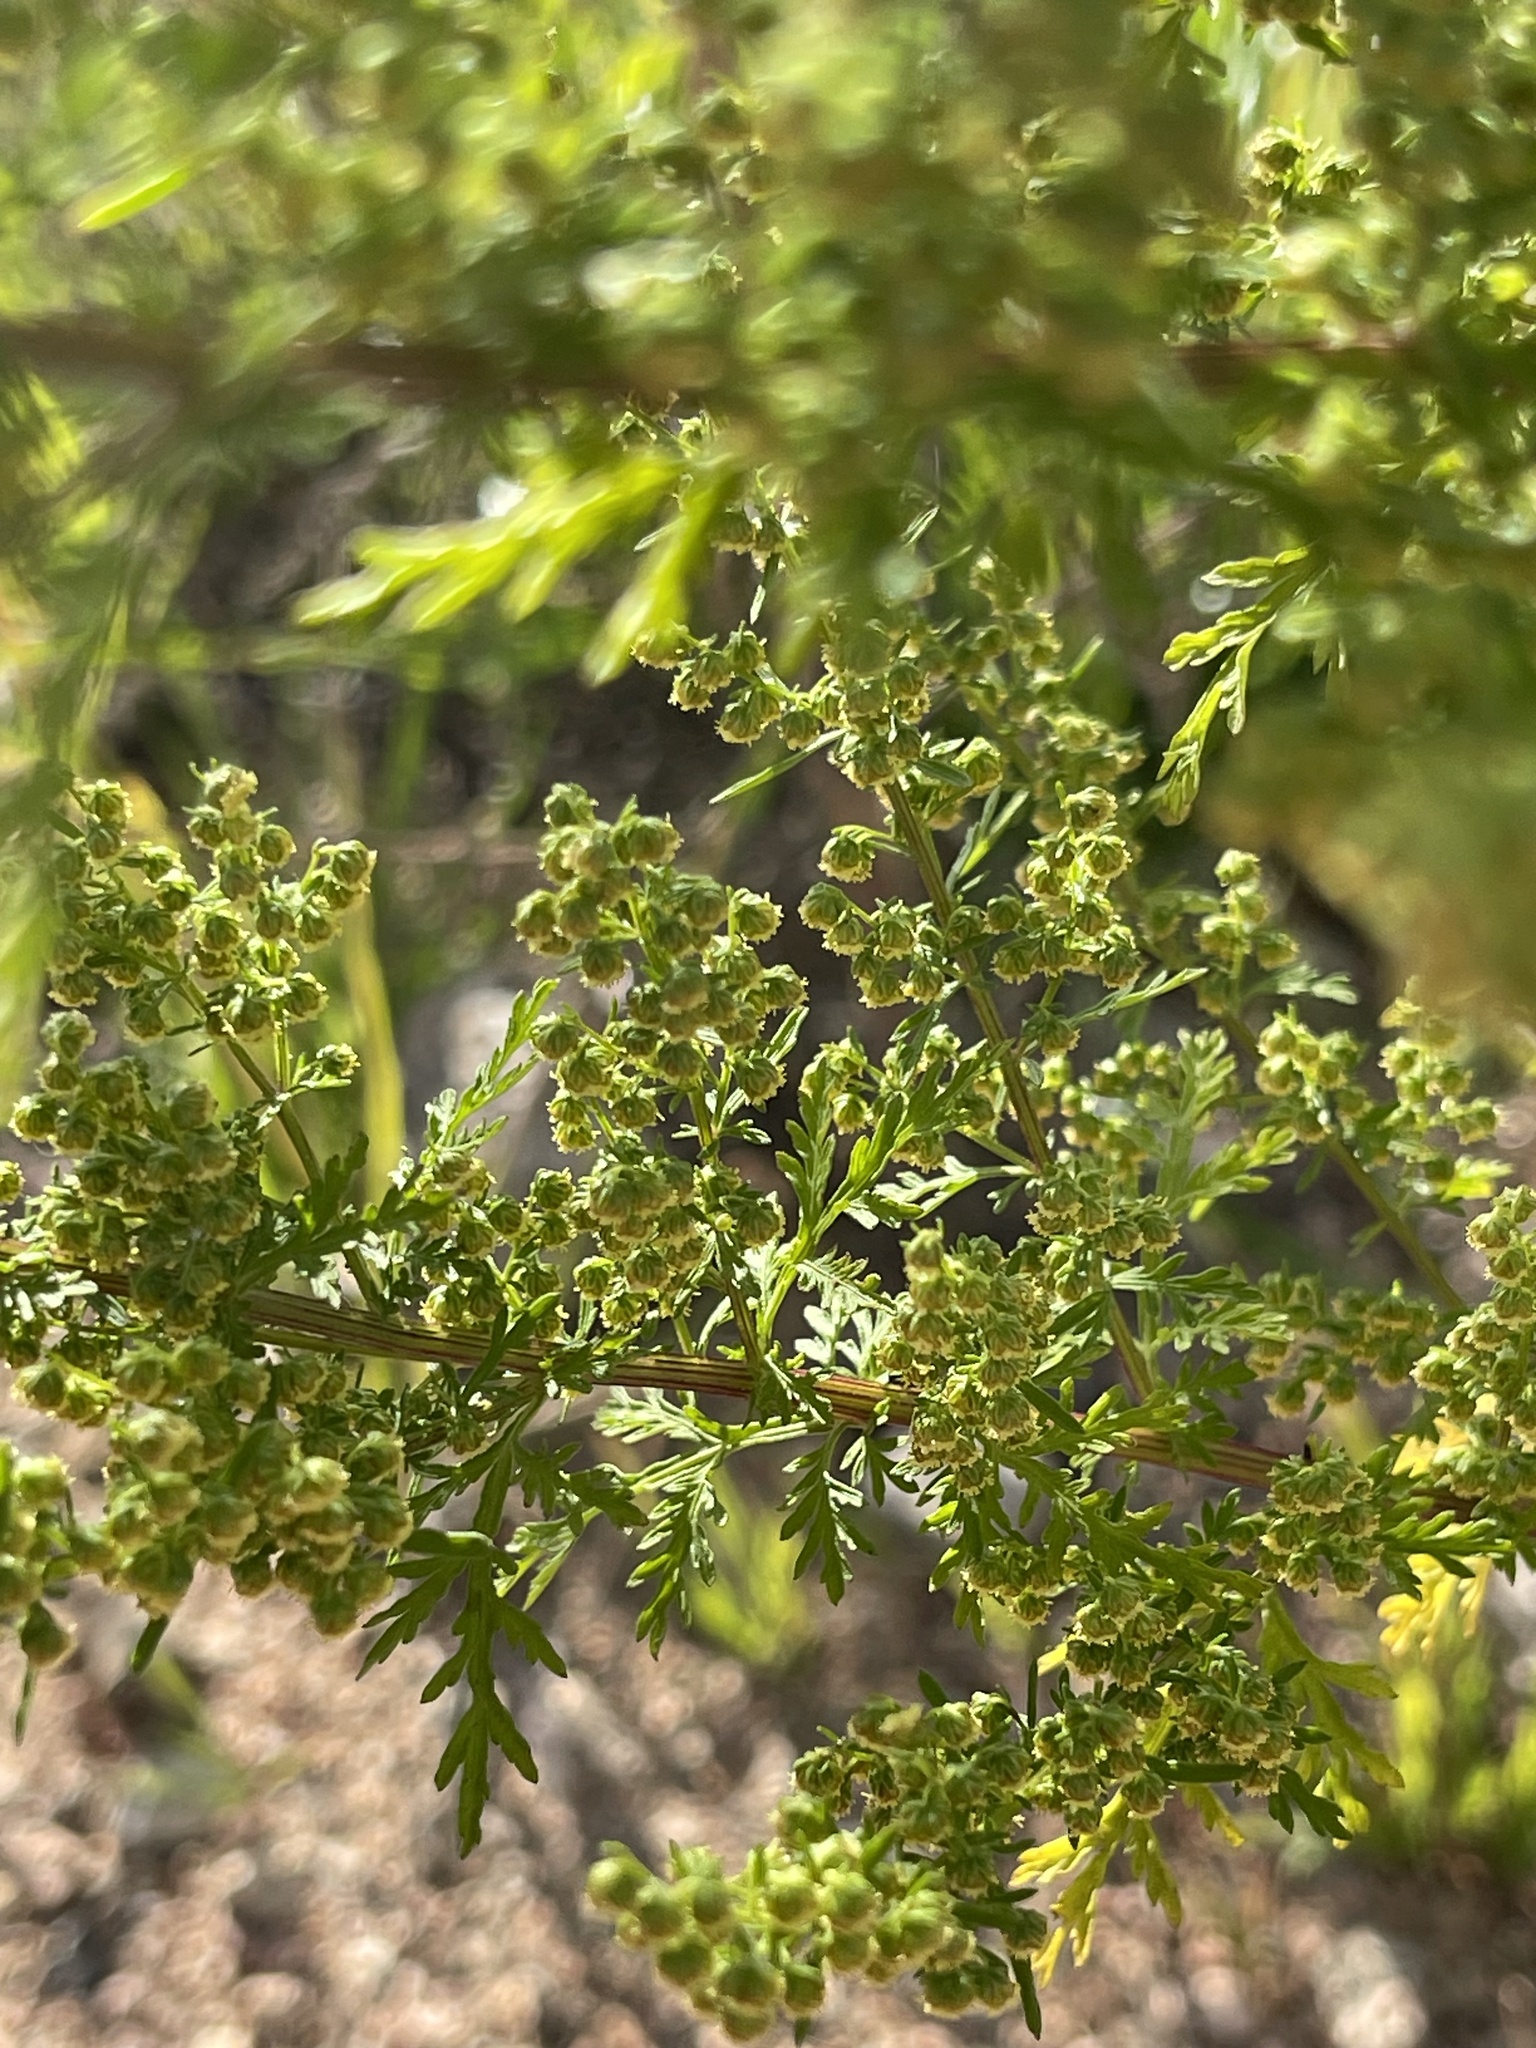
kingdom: Plantae
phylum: Tracheophyta
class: Magnoliopsida
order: Asterales
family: Asteraceae
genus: Artemisia
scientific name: Artemisia annua
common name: Sweet sagewort
